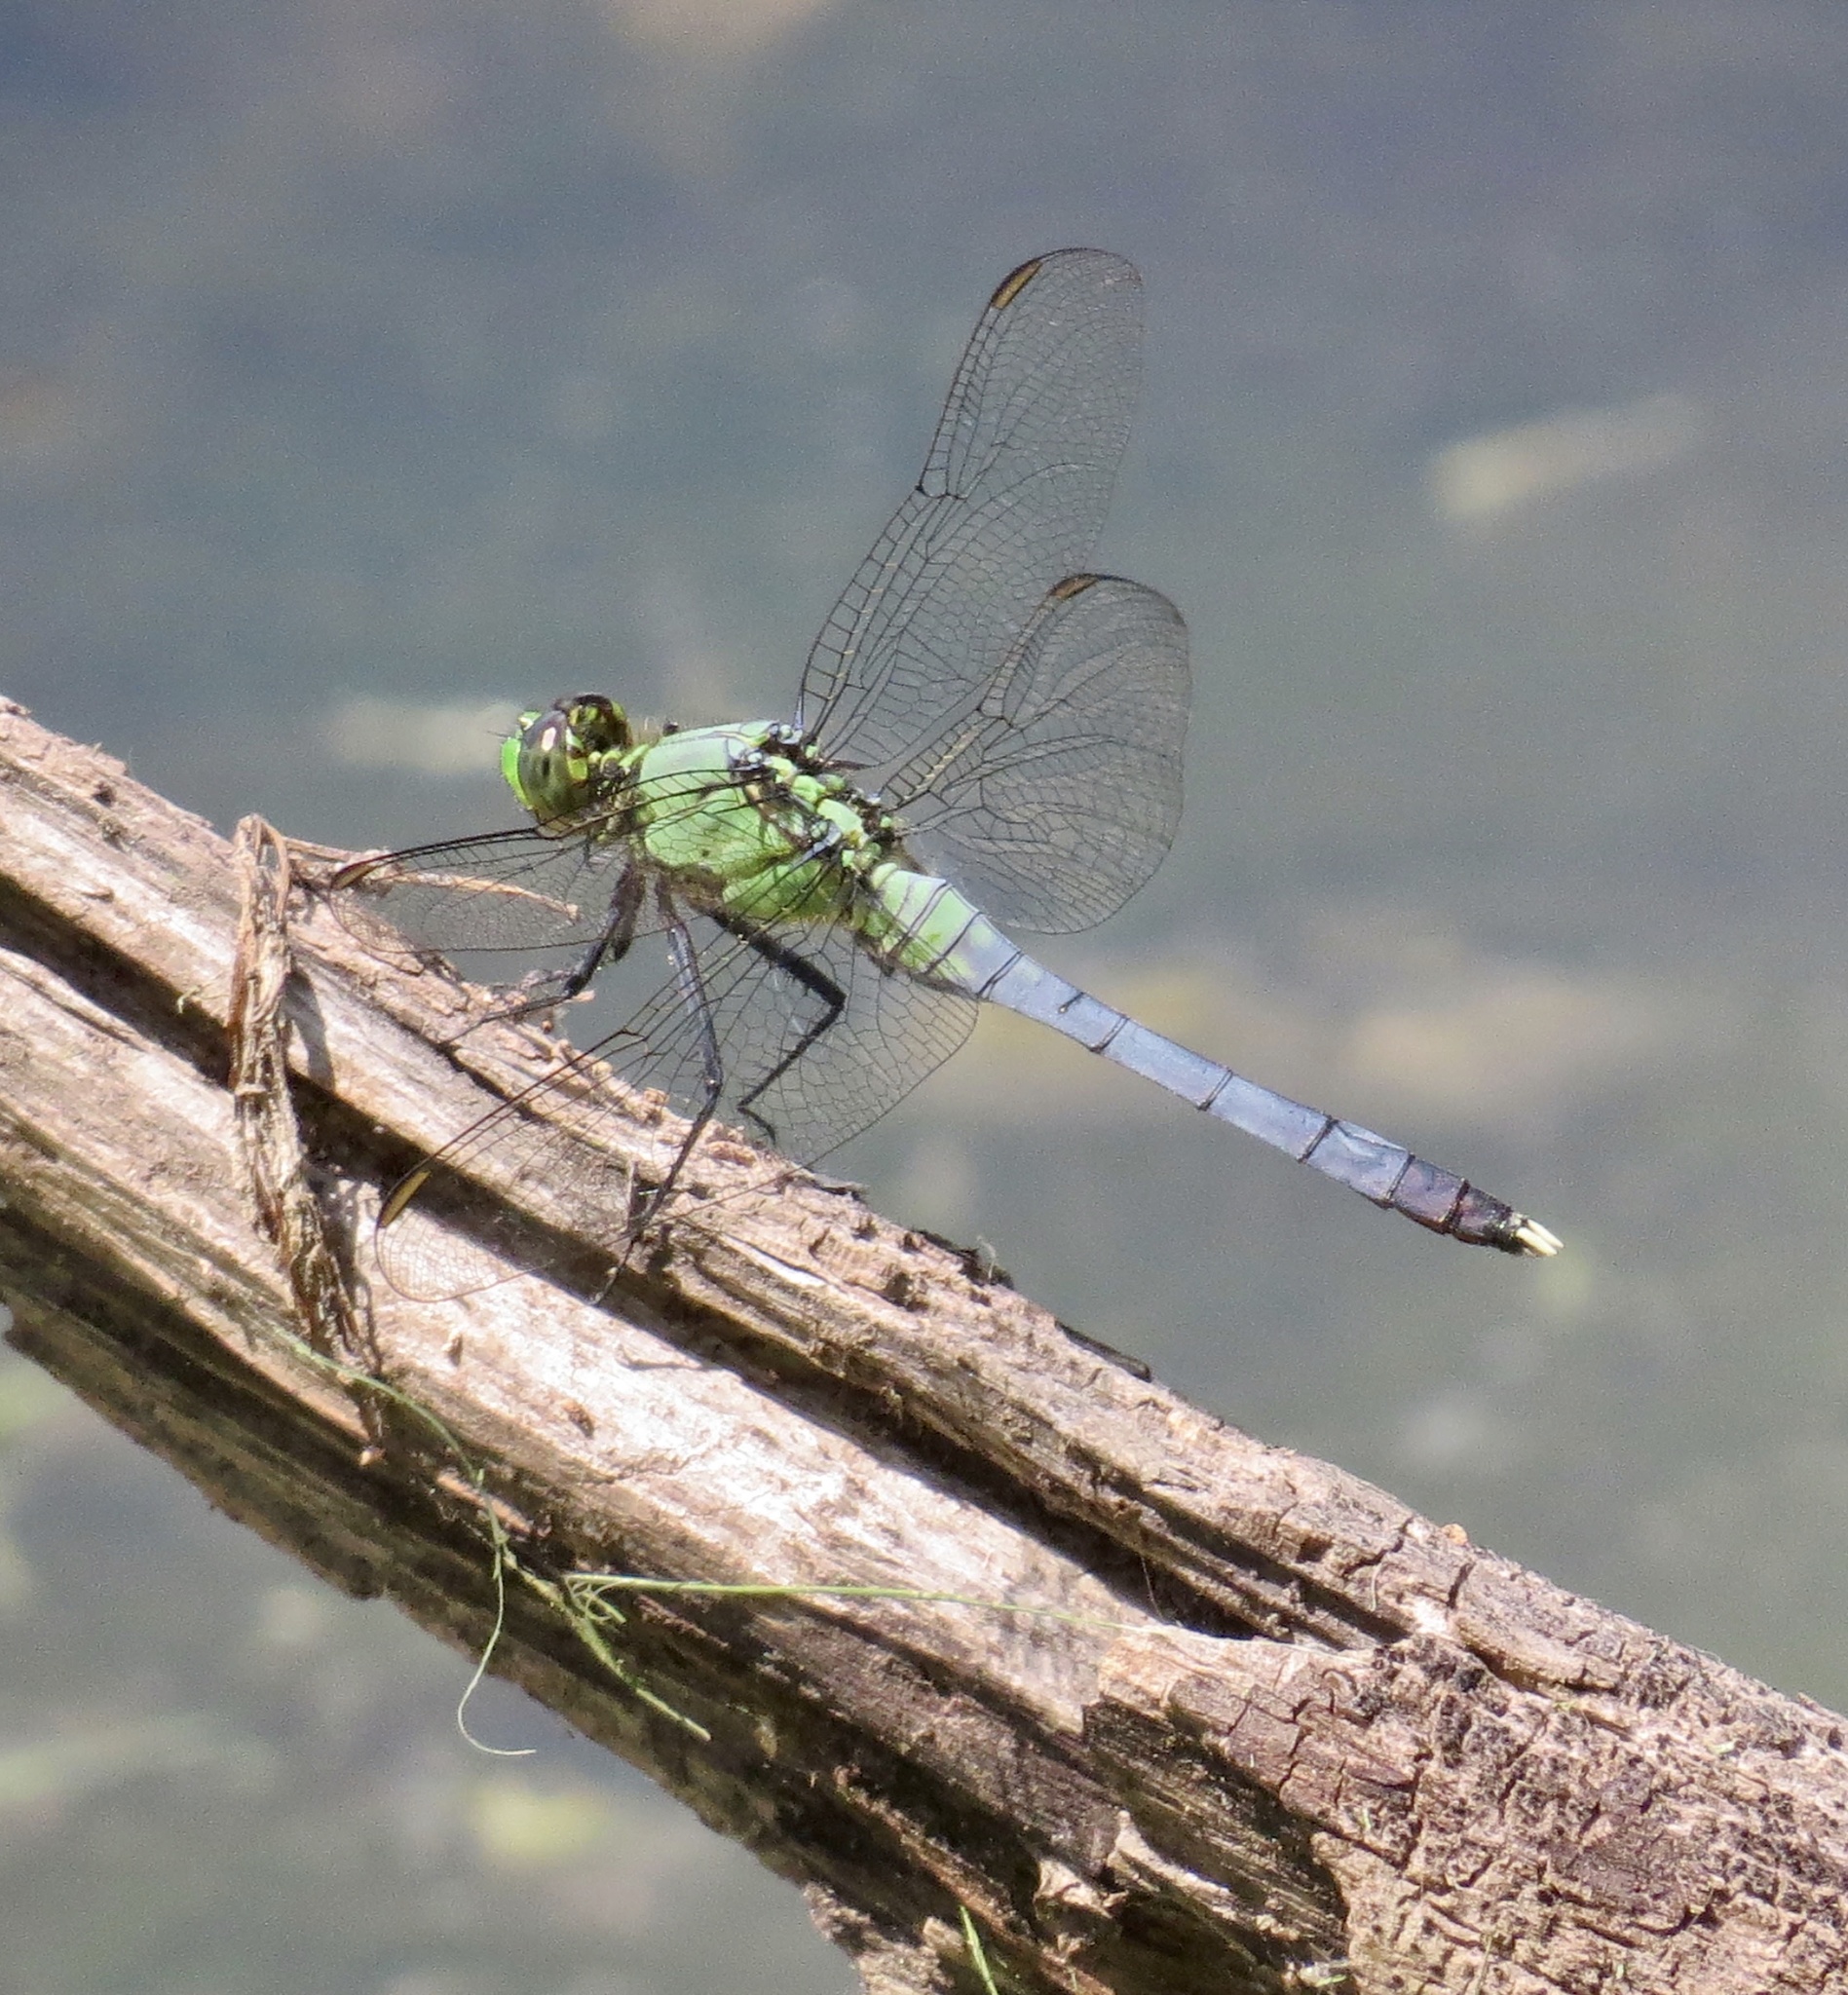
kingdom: Animalia
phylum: Arthropoda
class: Insecta
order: Odonata
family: Libellulidae
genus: Erythemis
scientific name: Erythemis simplicicollis
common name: Eastern pondhawk
